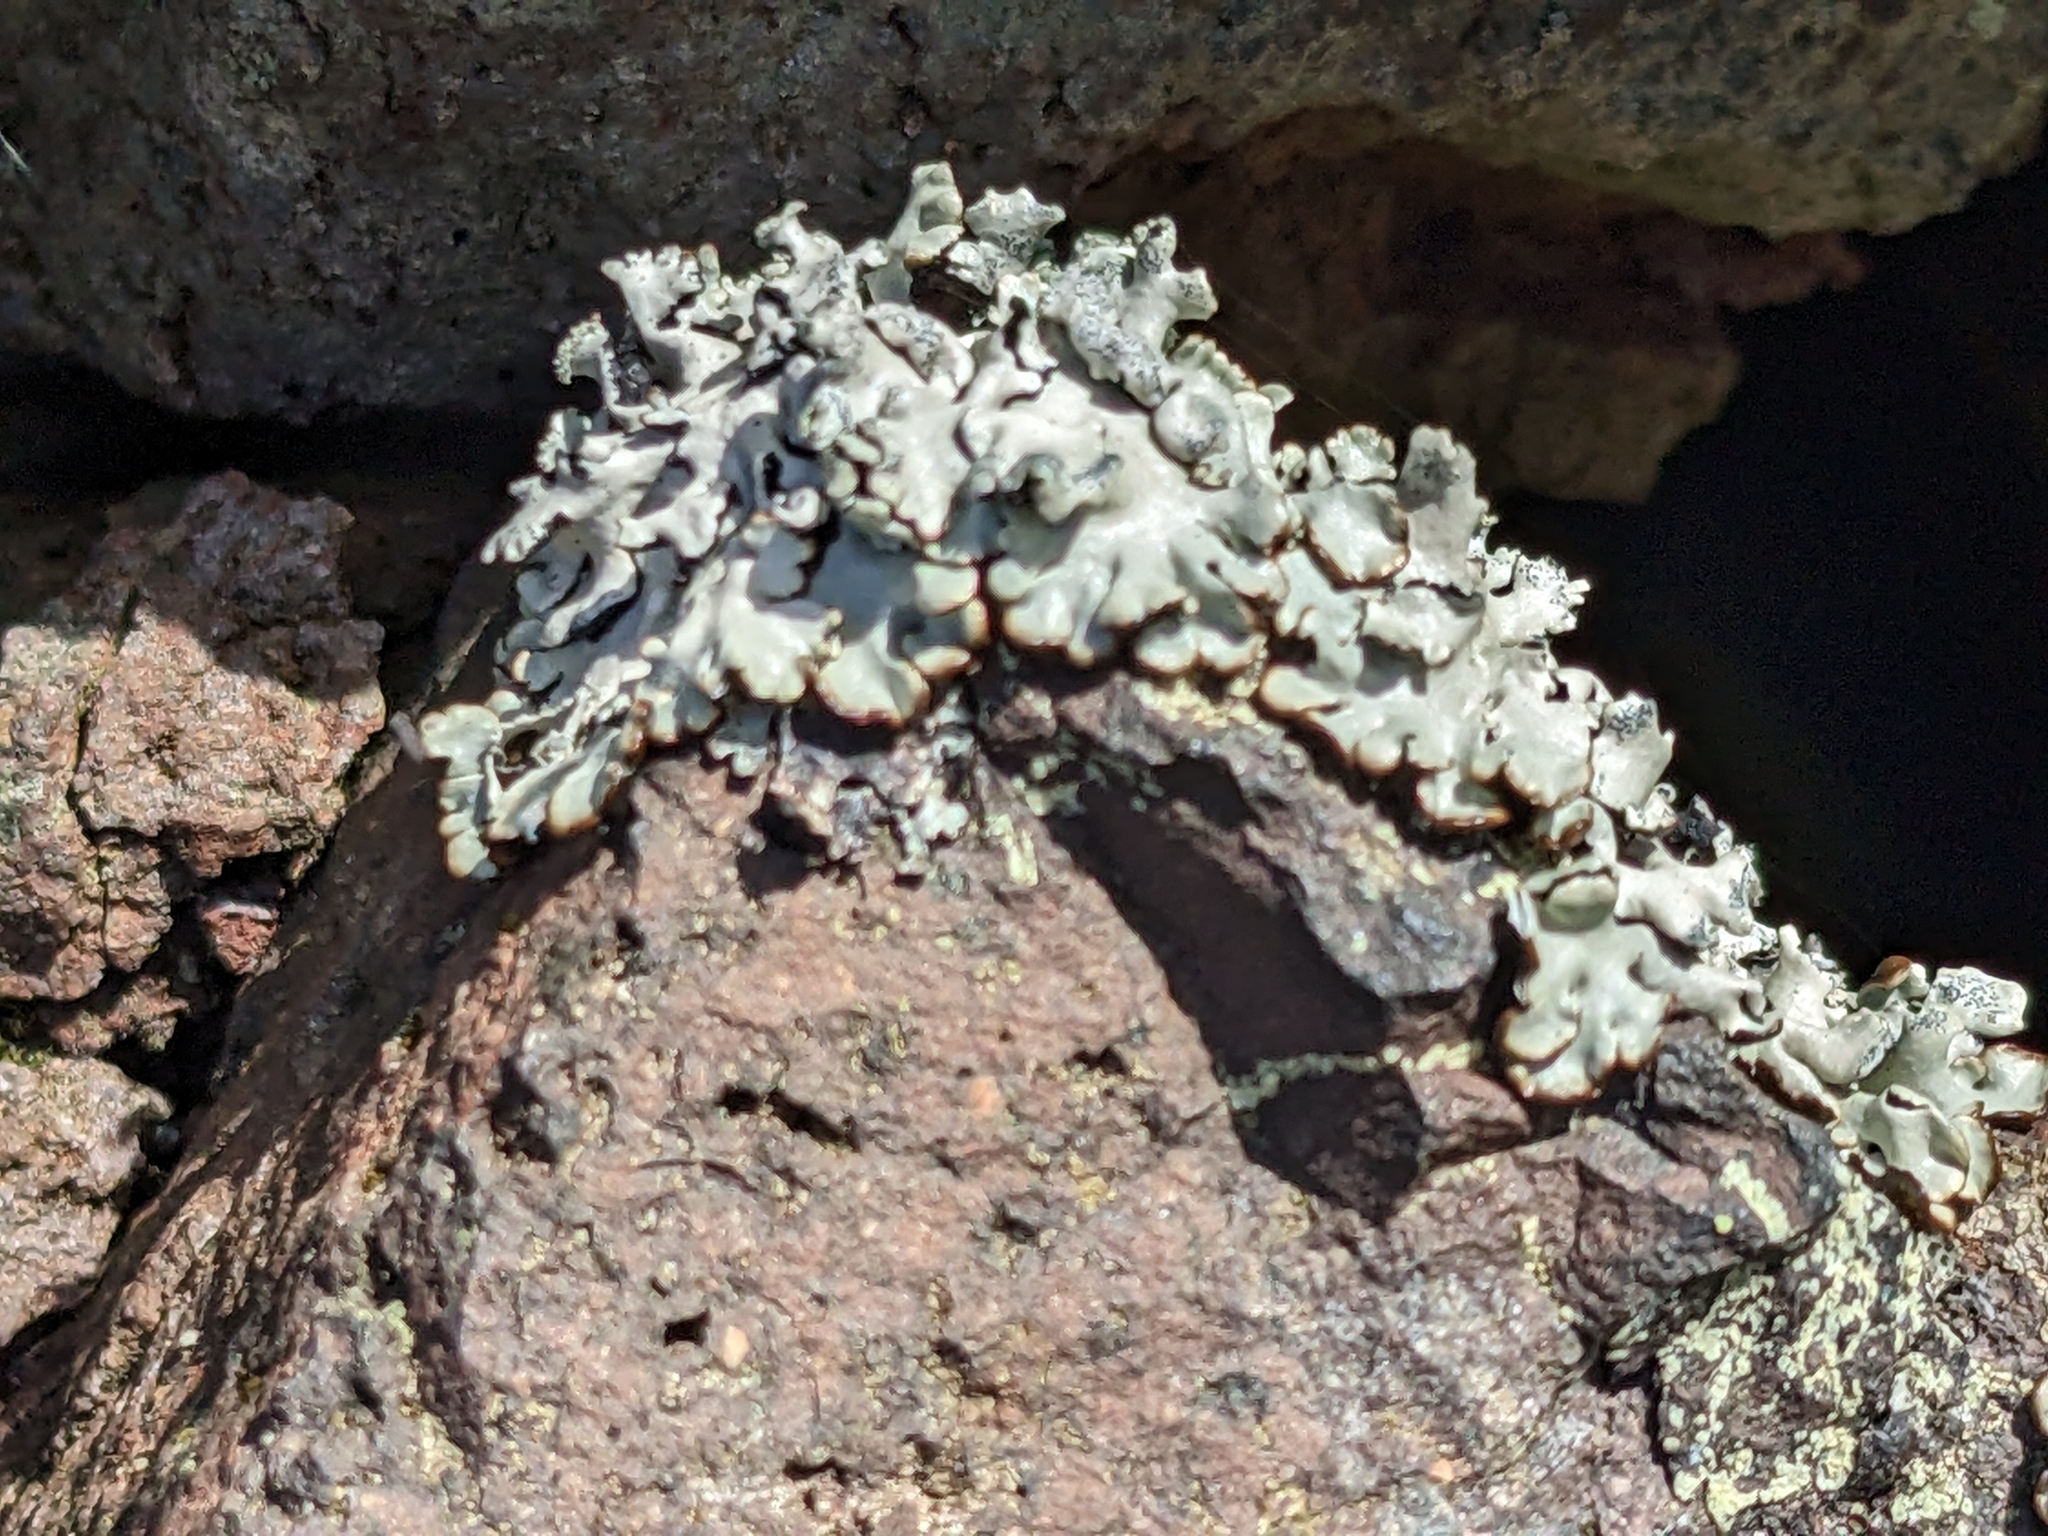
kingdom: Fungi
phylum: Ascomycota
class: Lecanoromycetes
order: Lecanorales
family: Parmeliaceae
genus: Hypogymnia
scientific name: Hypogymnia physodes
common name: Dark crottle
